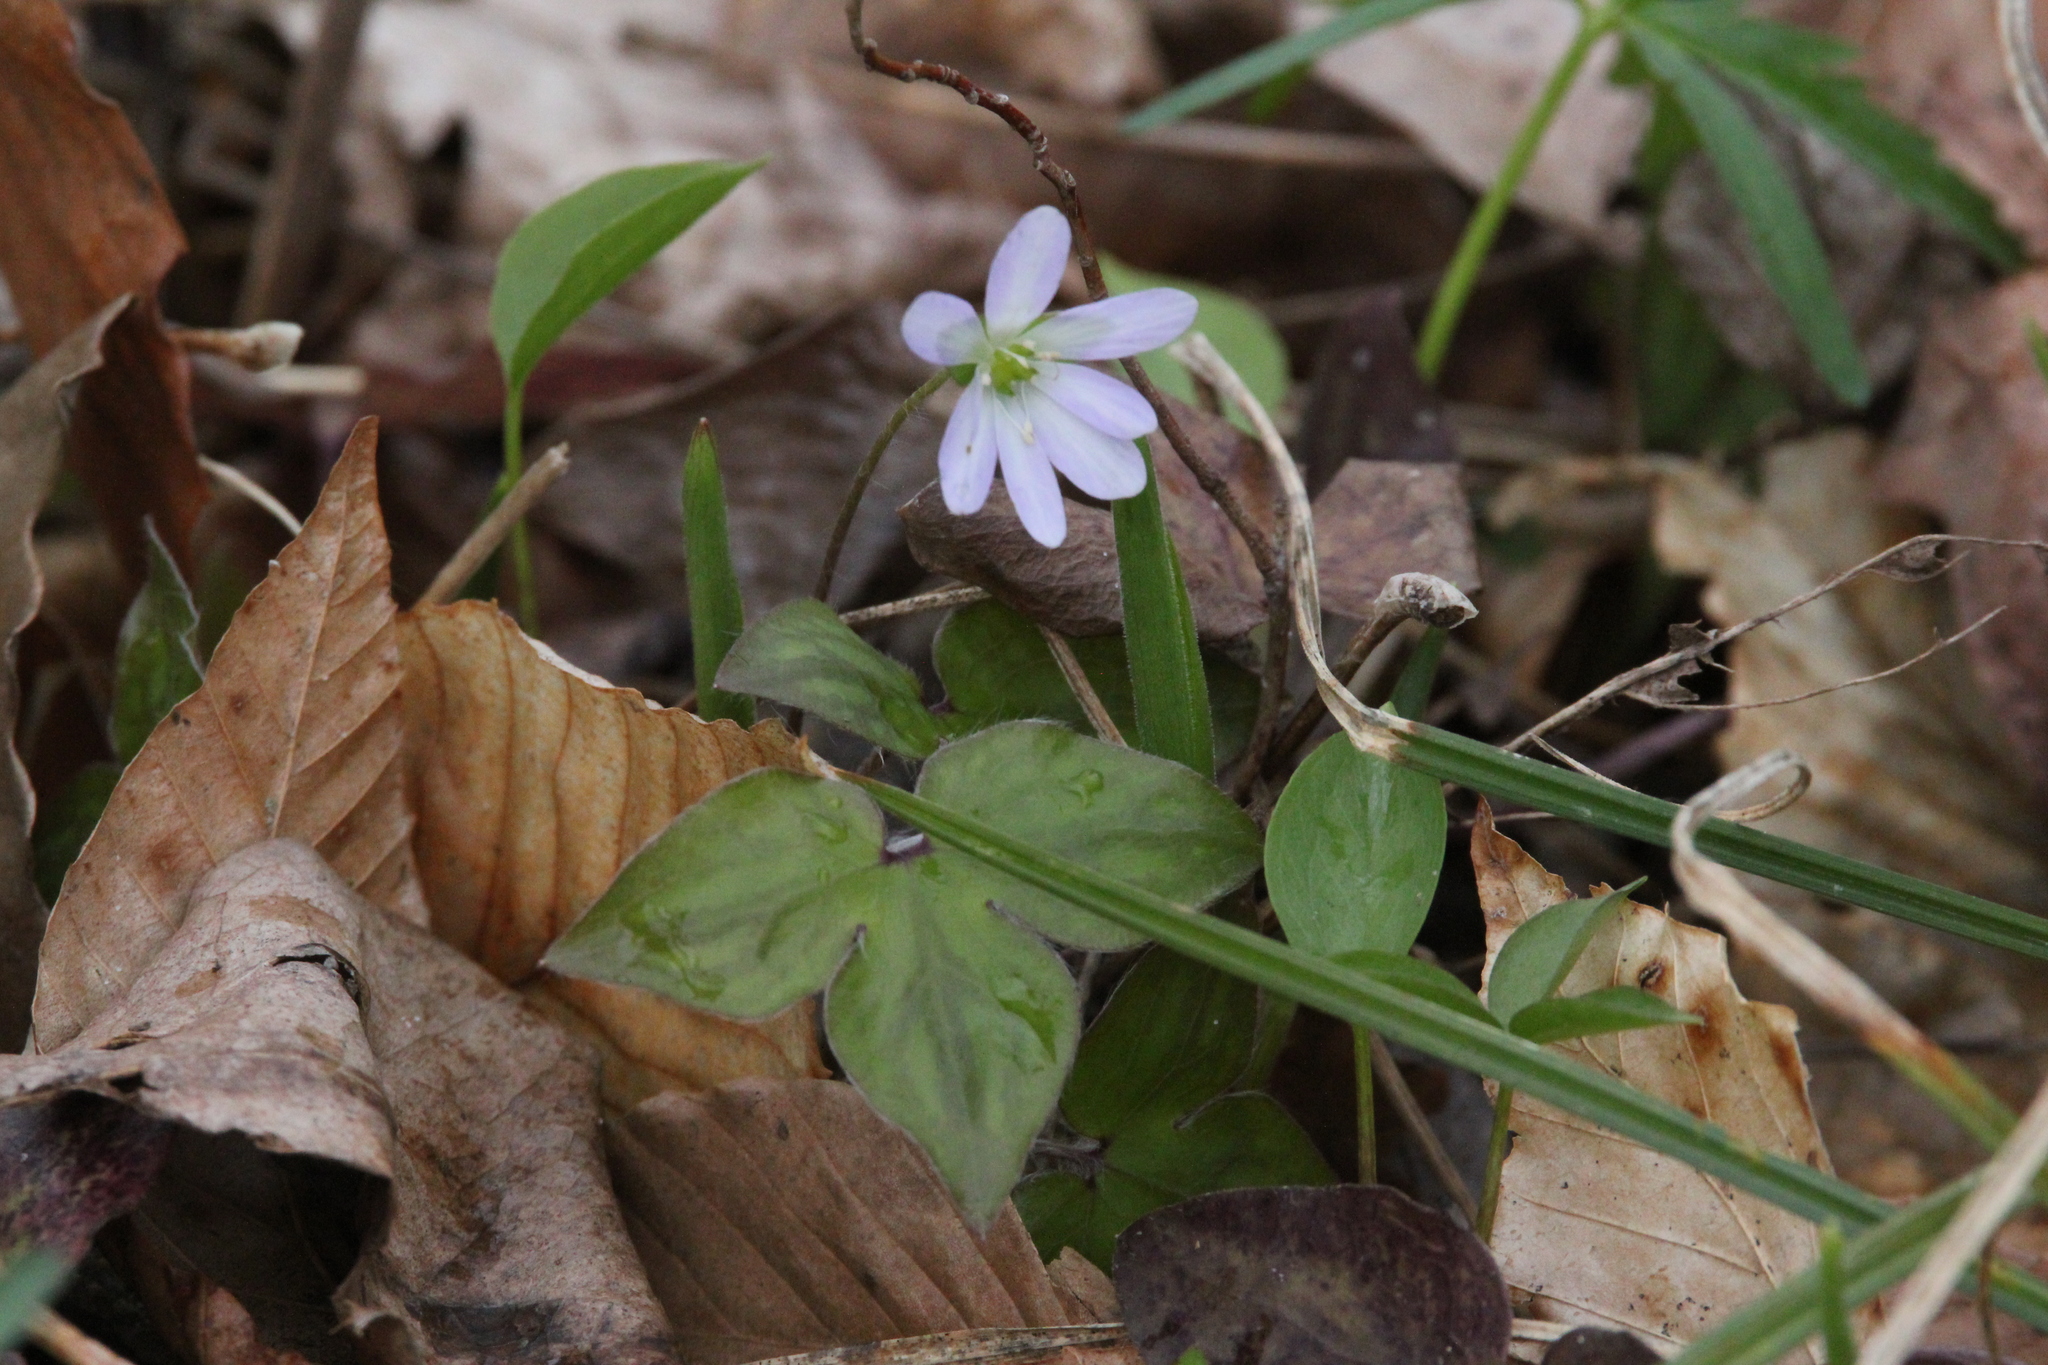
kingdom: Plantae
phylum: Tracheophyta
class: Magnoliopsida
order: Ranunculales
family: Ranunculaceae
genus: Hepatica
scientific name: Hepatica acutiloba
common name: Sharp-lobed hepatica
